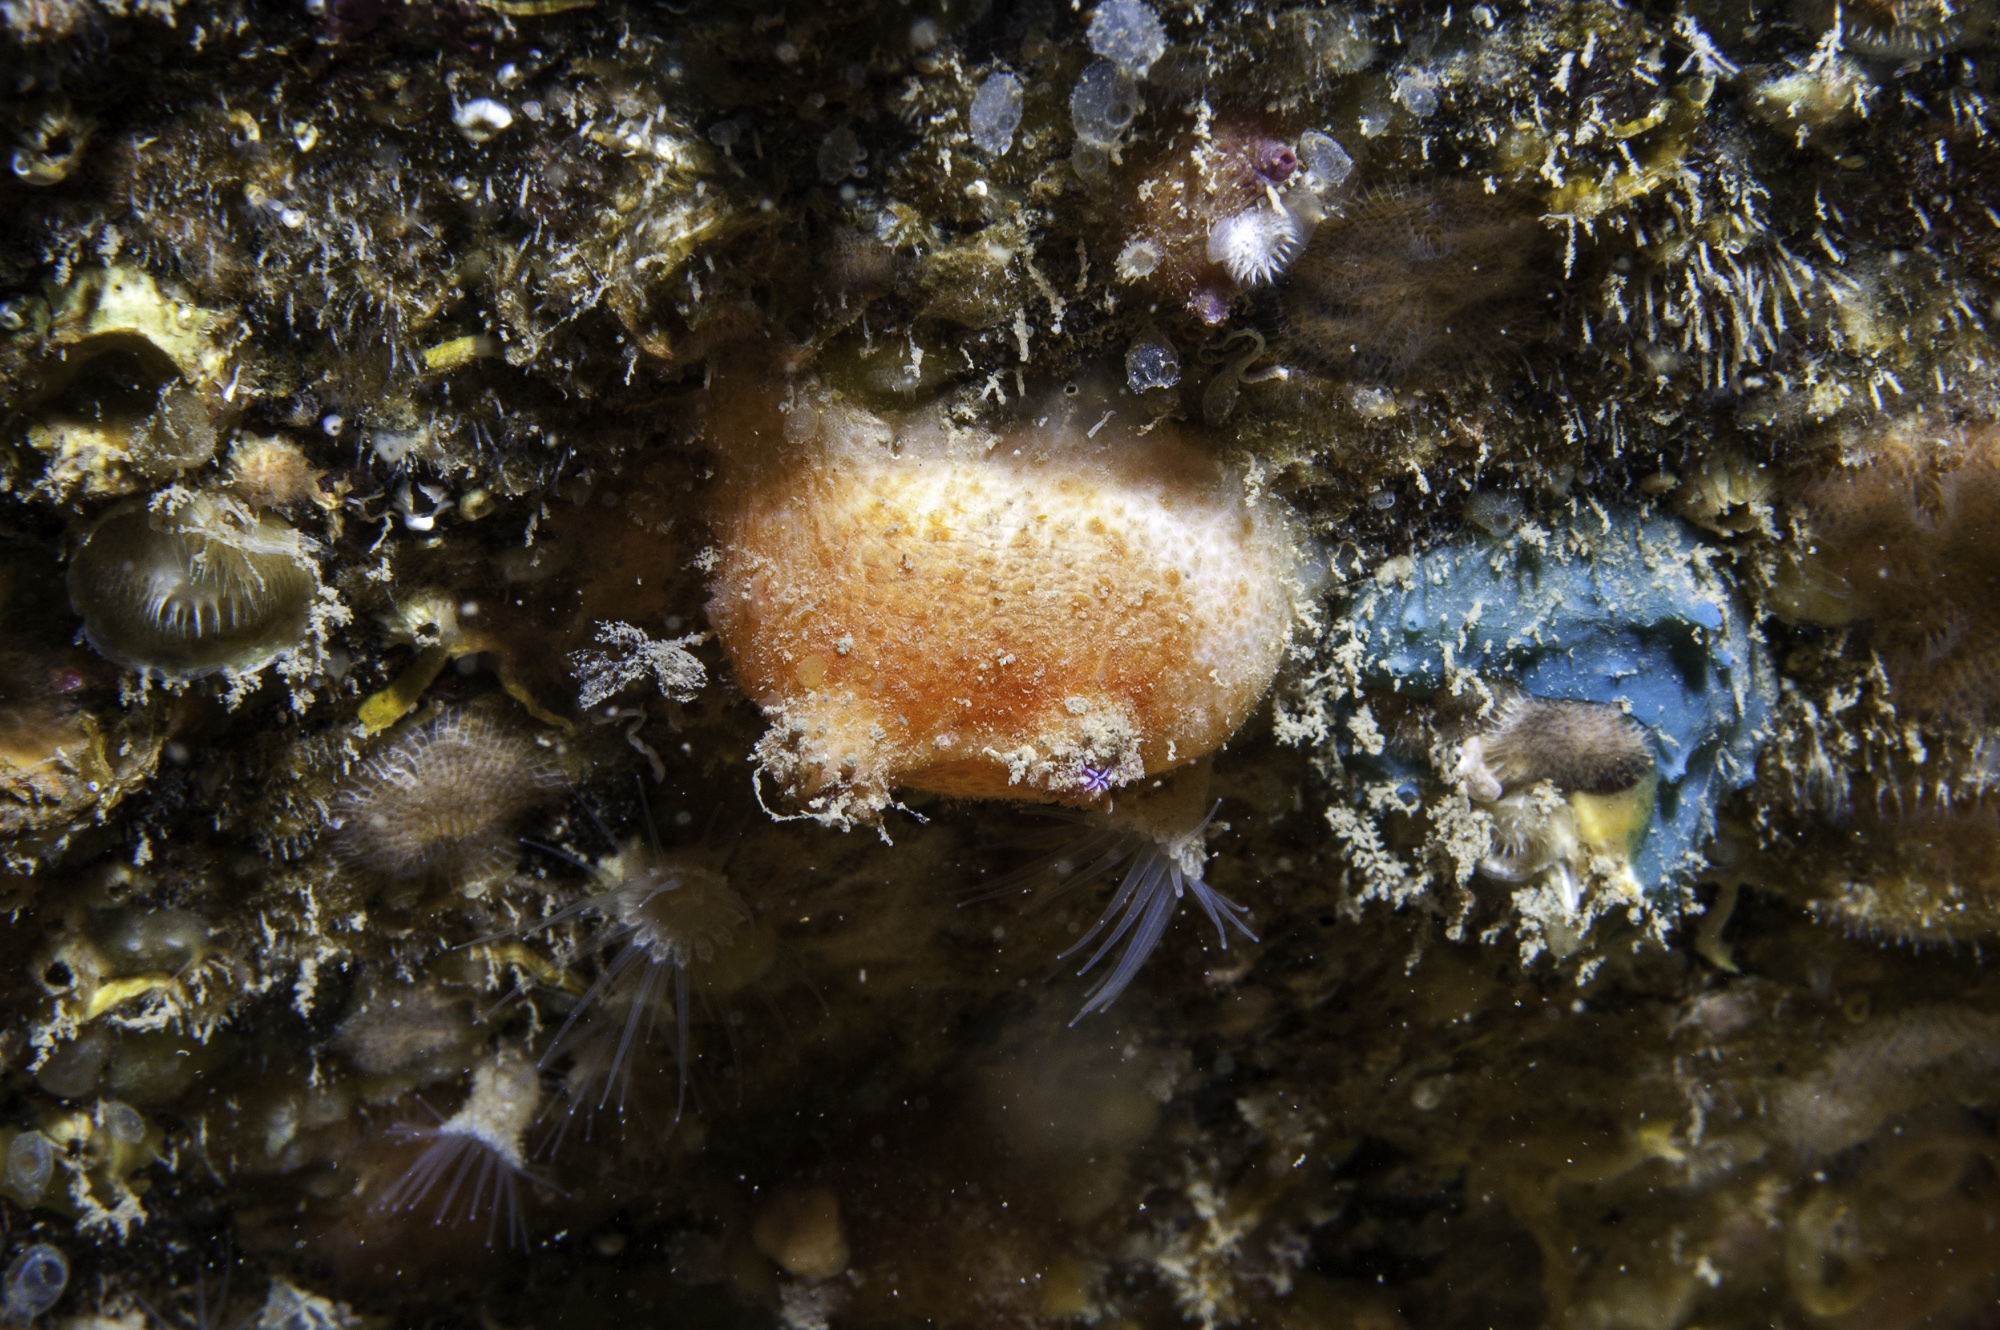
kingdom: Animalia
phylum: Chordata
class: Ascidiacea
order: Stolidobranchia
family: Pyuridae
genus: Pyura
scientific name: Pyura tessellata
